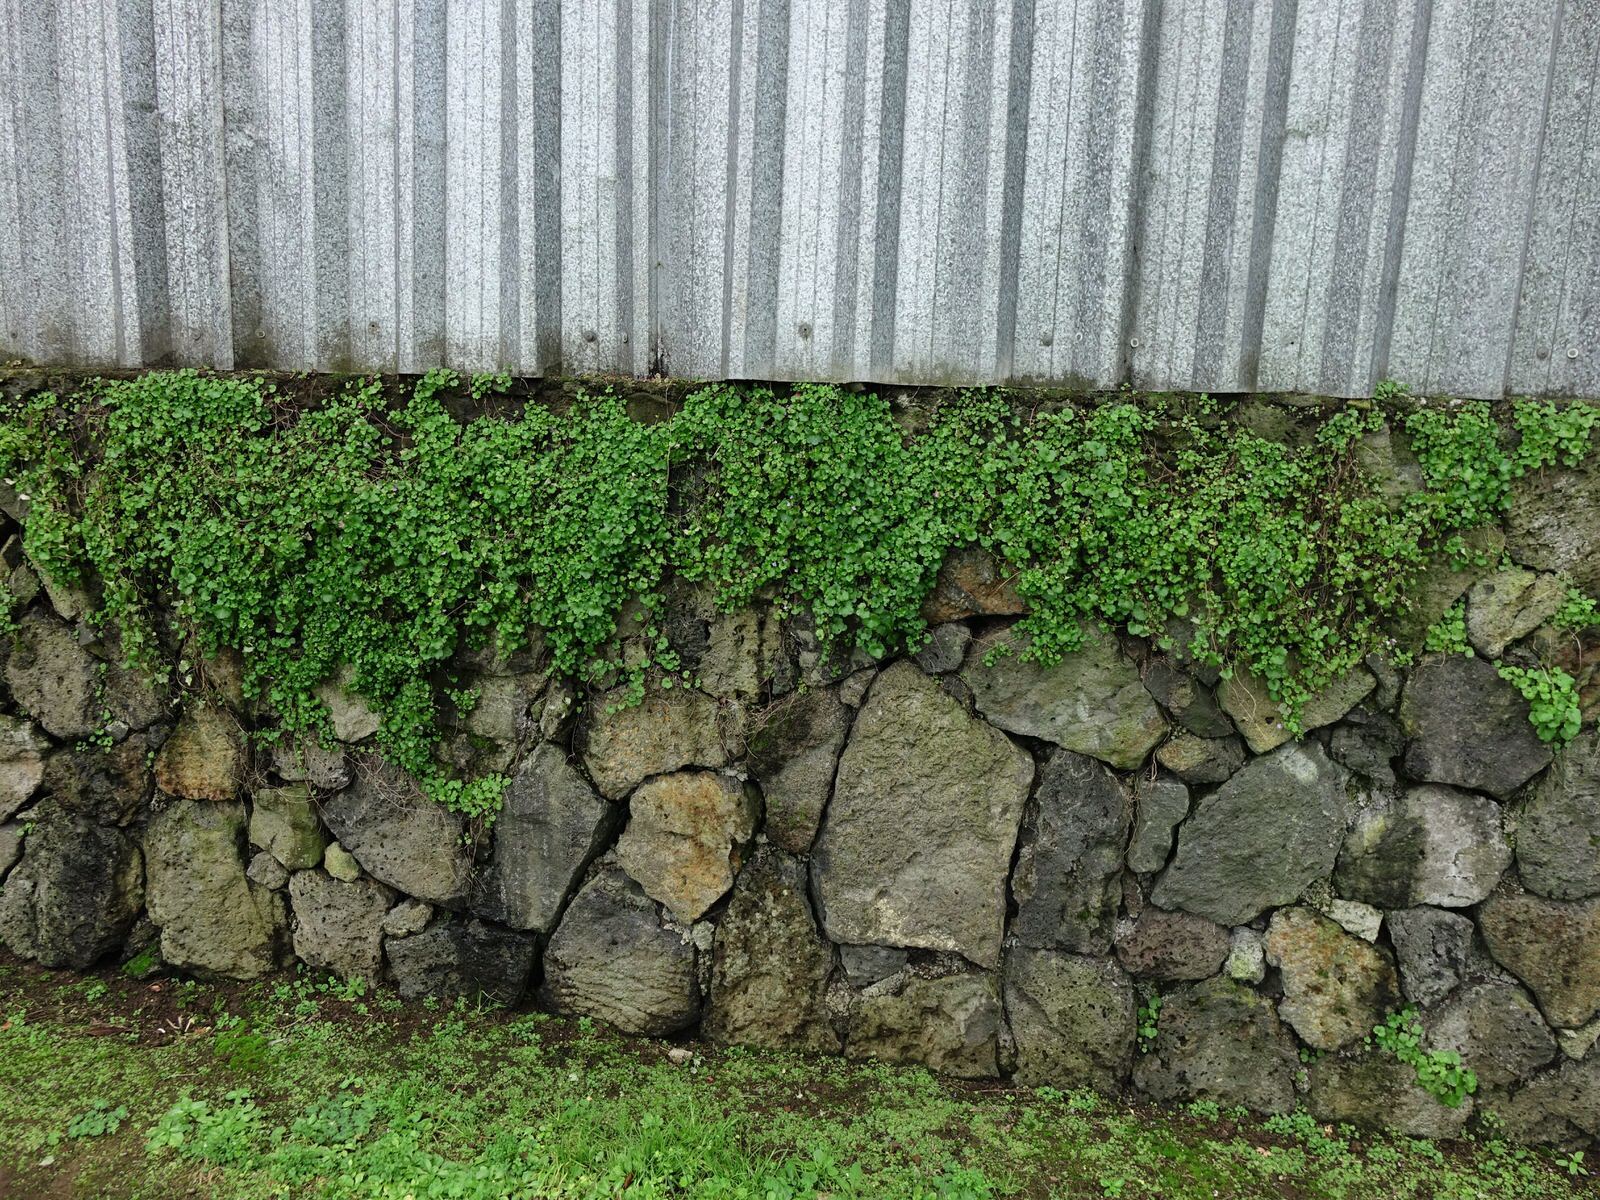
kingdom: Plantae
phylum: Tracheophyta
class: Magnoliopsida
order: Lamiales
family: Plantaginaceae
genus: Cymbalaria
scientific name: Cymbalaria muralis
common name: Ivy-leaved toadflax
